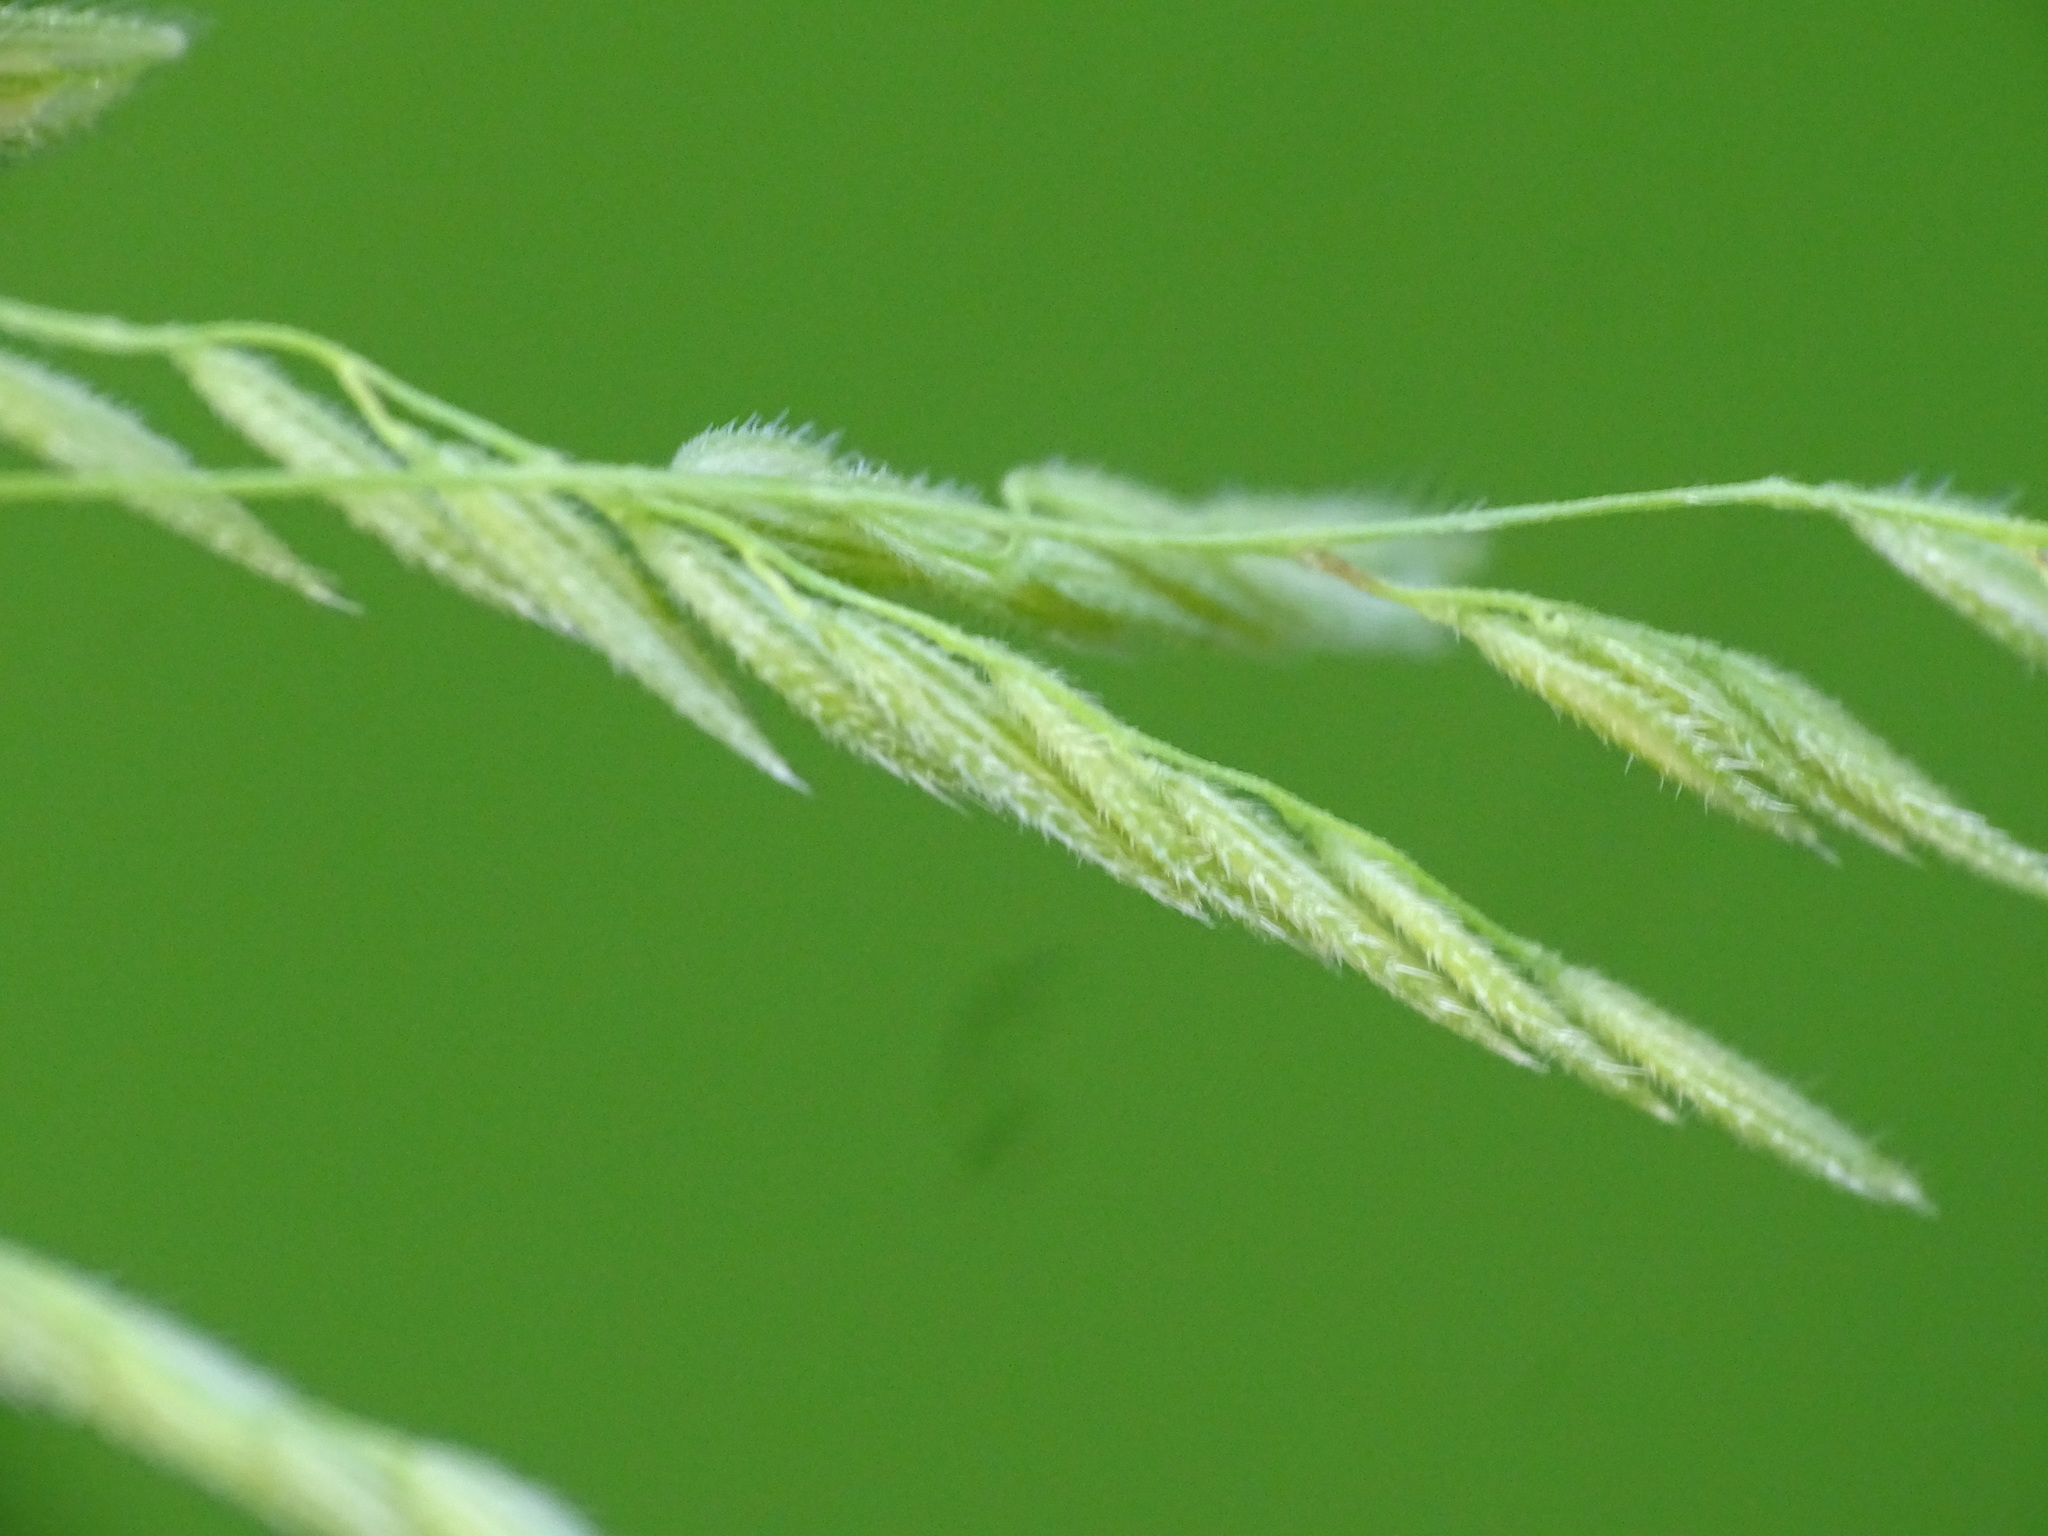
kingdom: Plantae
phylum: Tracheophyta
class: Liliopsida
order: Poales
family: Poaceae
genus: Leersia
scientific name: Leersia oryzoides
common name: Cut-grass
